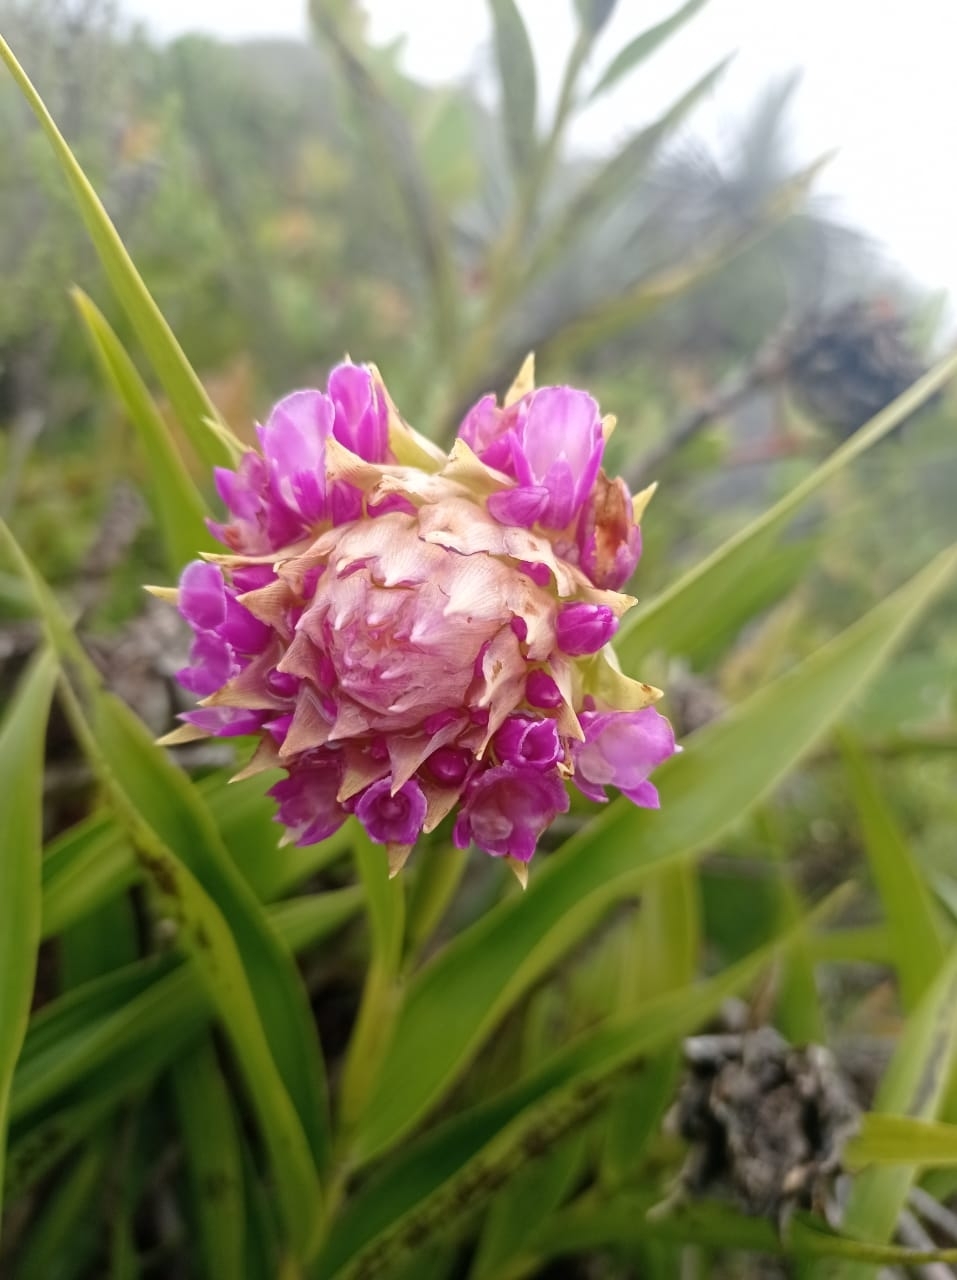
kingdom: Plantae
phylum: Tracheophyta
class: Liliopsida
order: Asparagales
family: Orchidaceae
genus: Elleanthus
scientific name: Elleanthus capitatus
